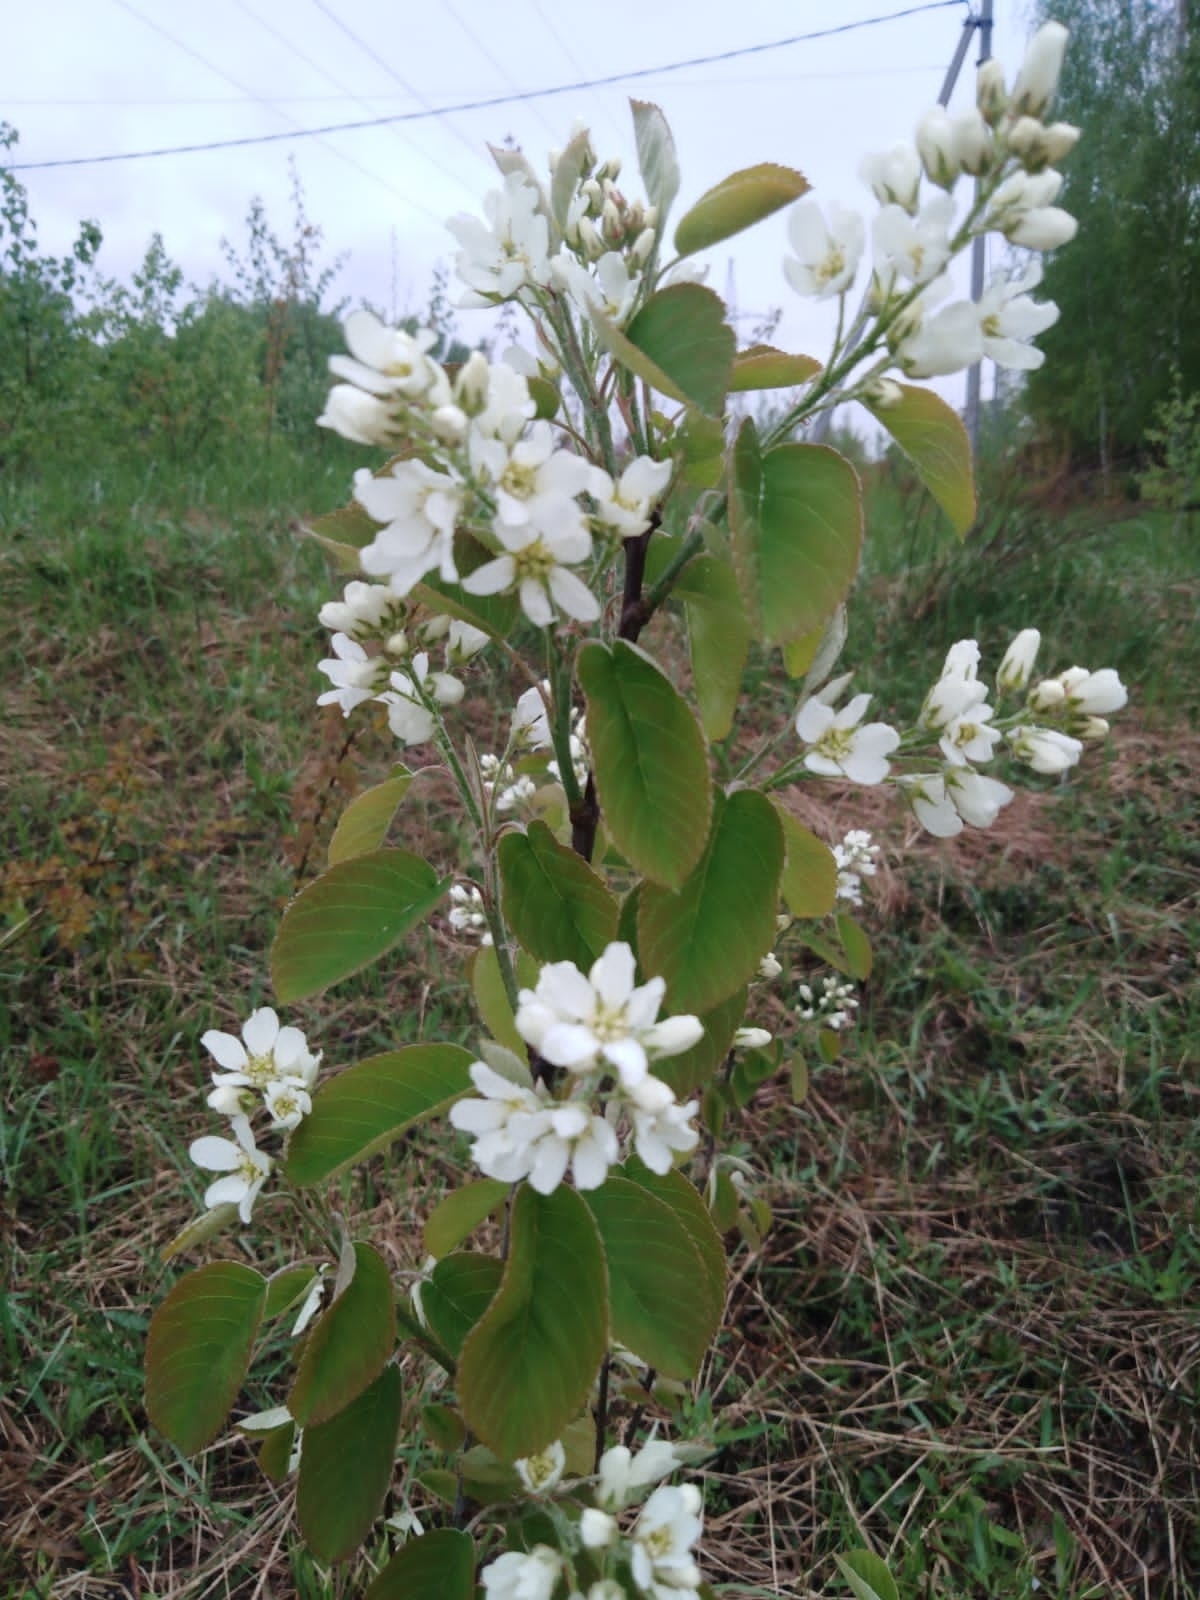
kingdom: Plantae
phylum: Tracheophyta
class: Magnoliopsida
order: Rosales
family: Rosaceae
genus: Amelanchier
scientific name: Amelanchier
